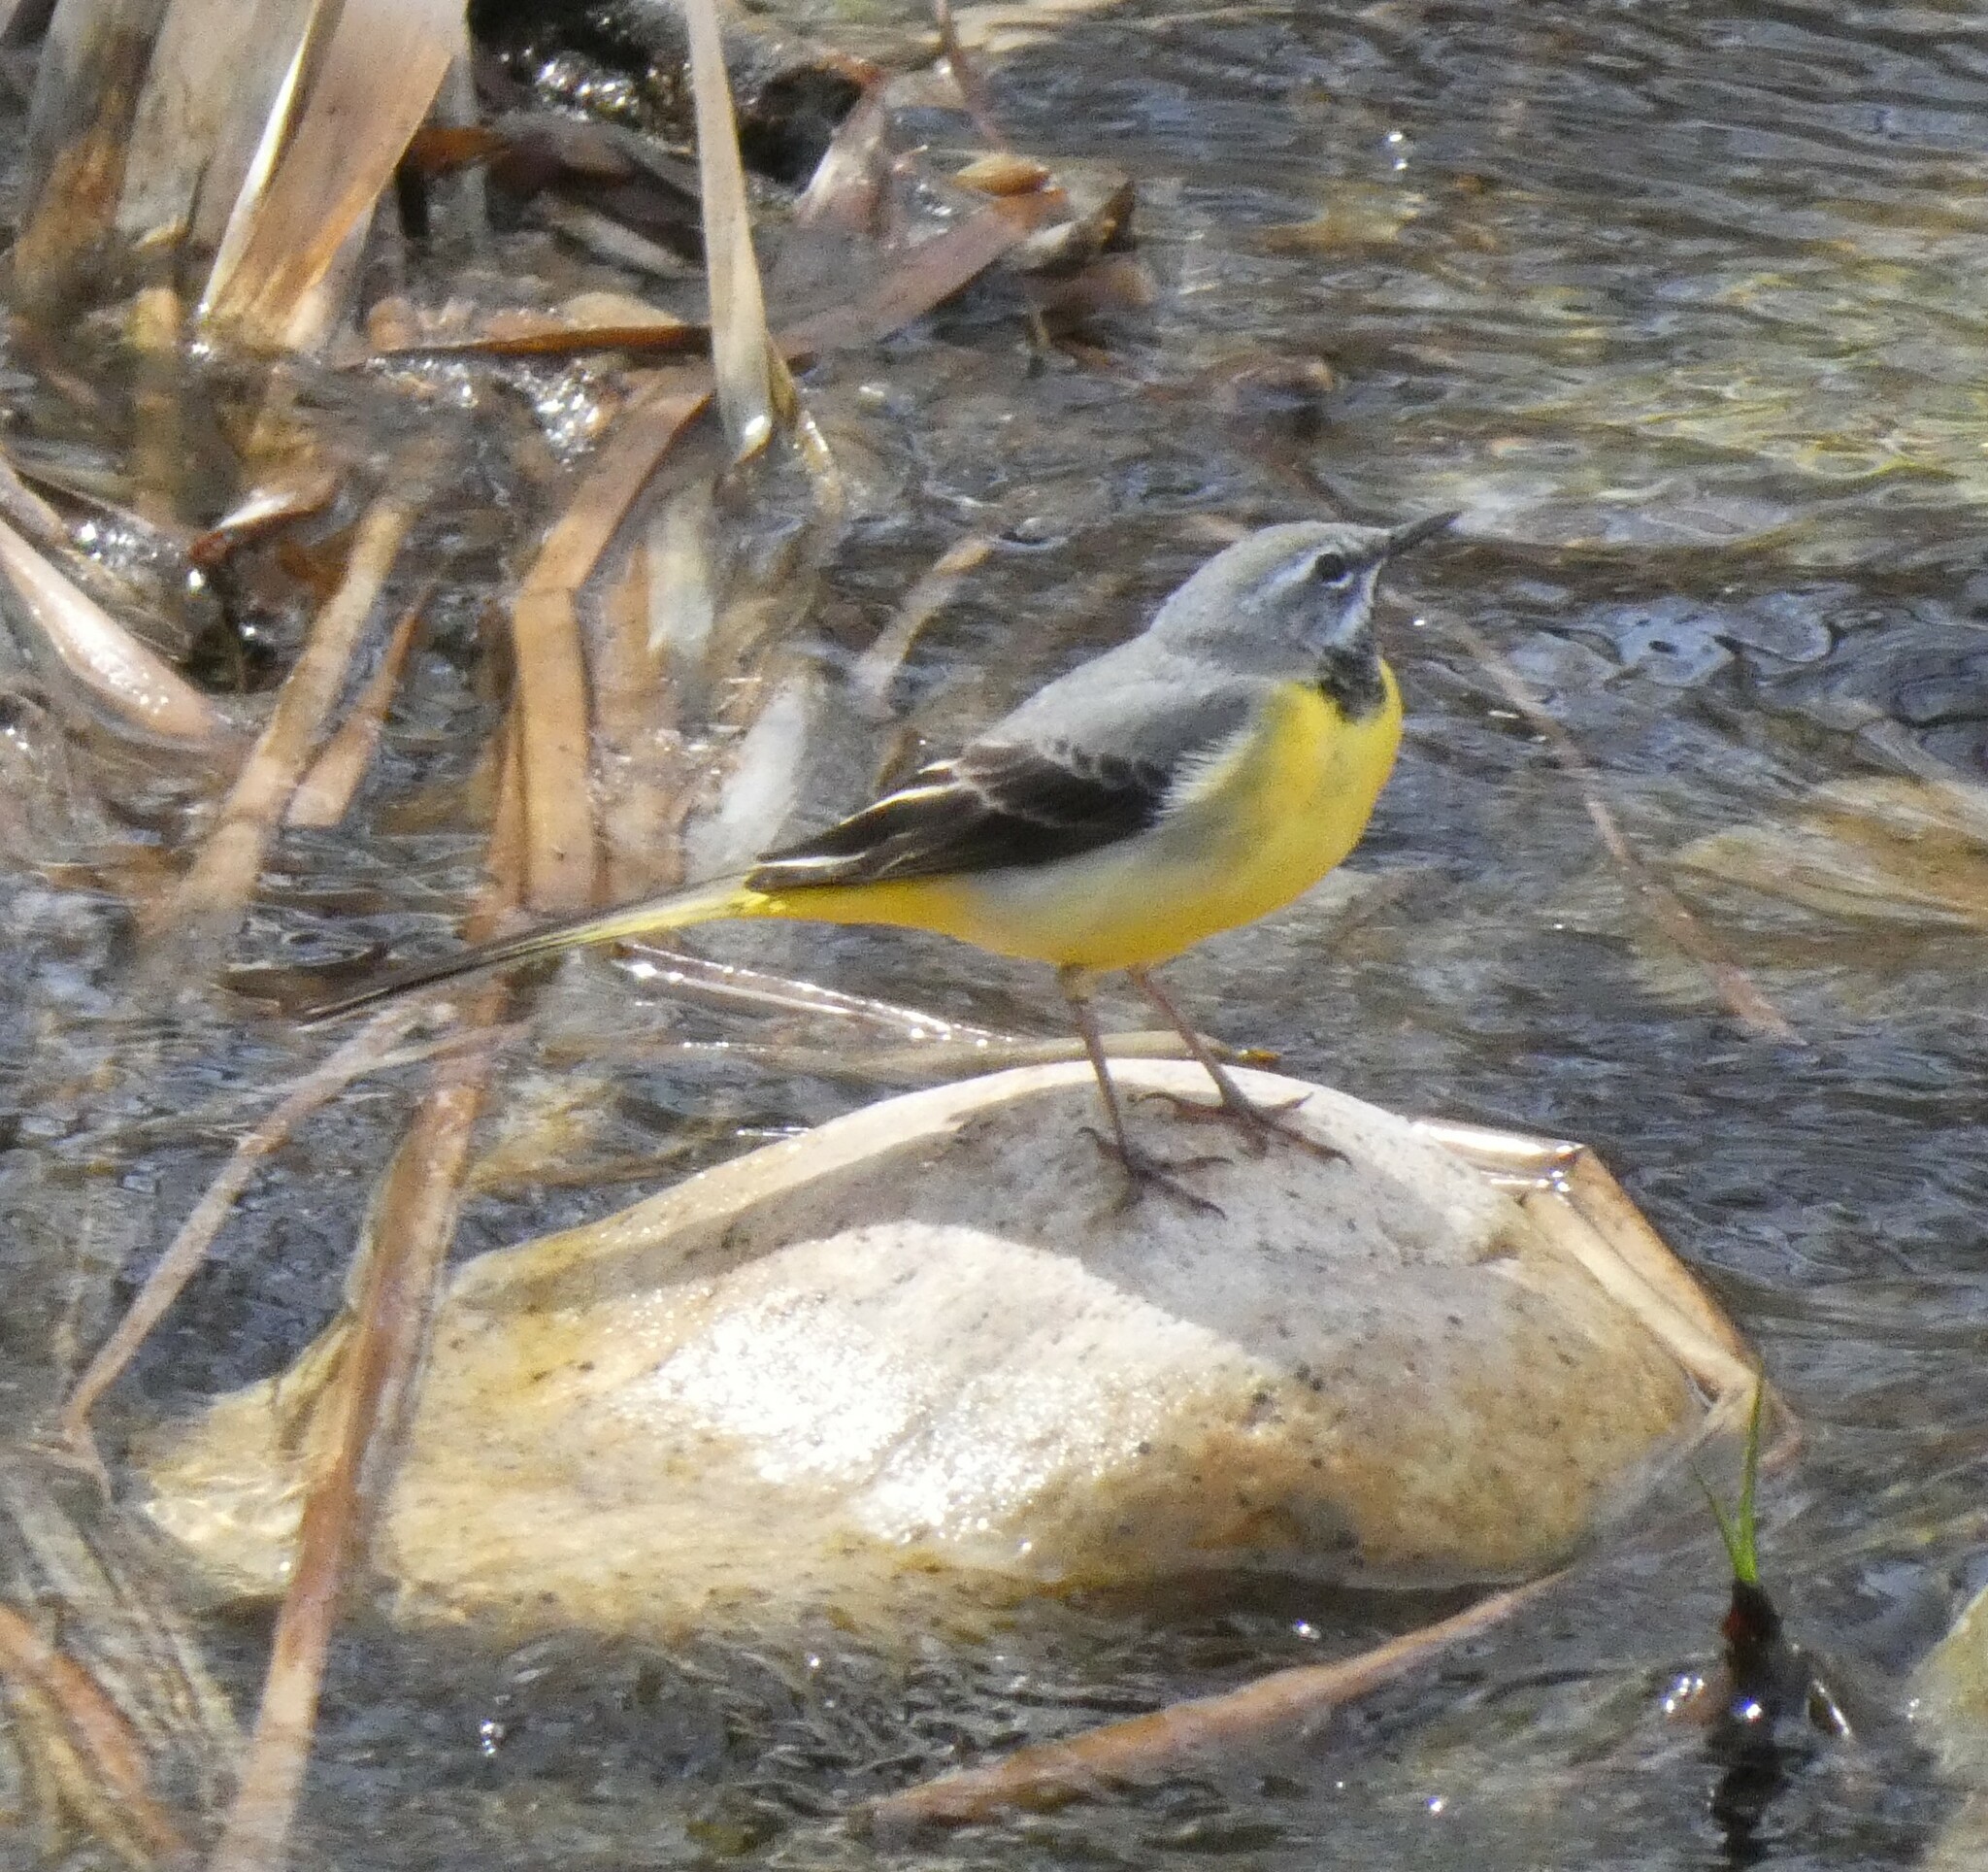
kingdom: Animalia
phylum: Chordata
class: Aves
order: Passeriformes
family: Motacillidae
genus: Motacilla
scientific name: Motacilla cinerea
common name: Grey wagtail
